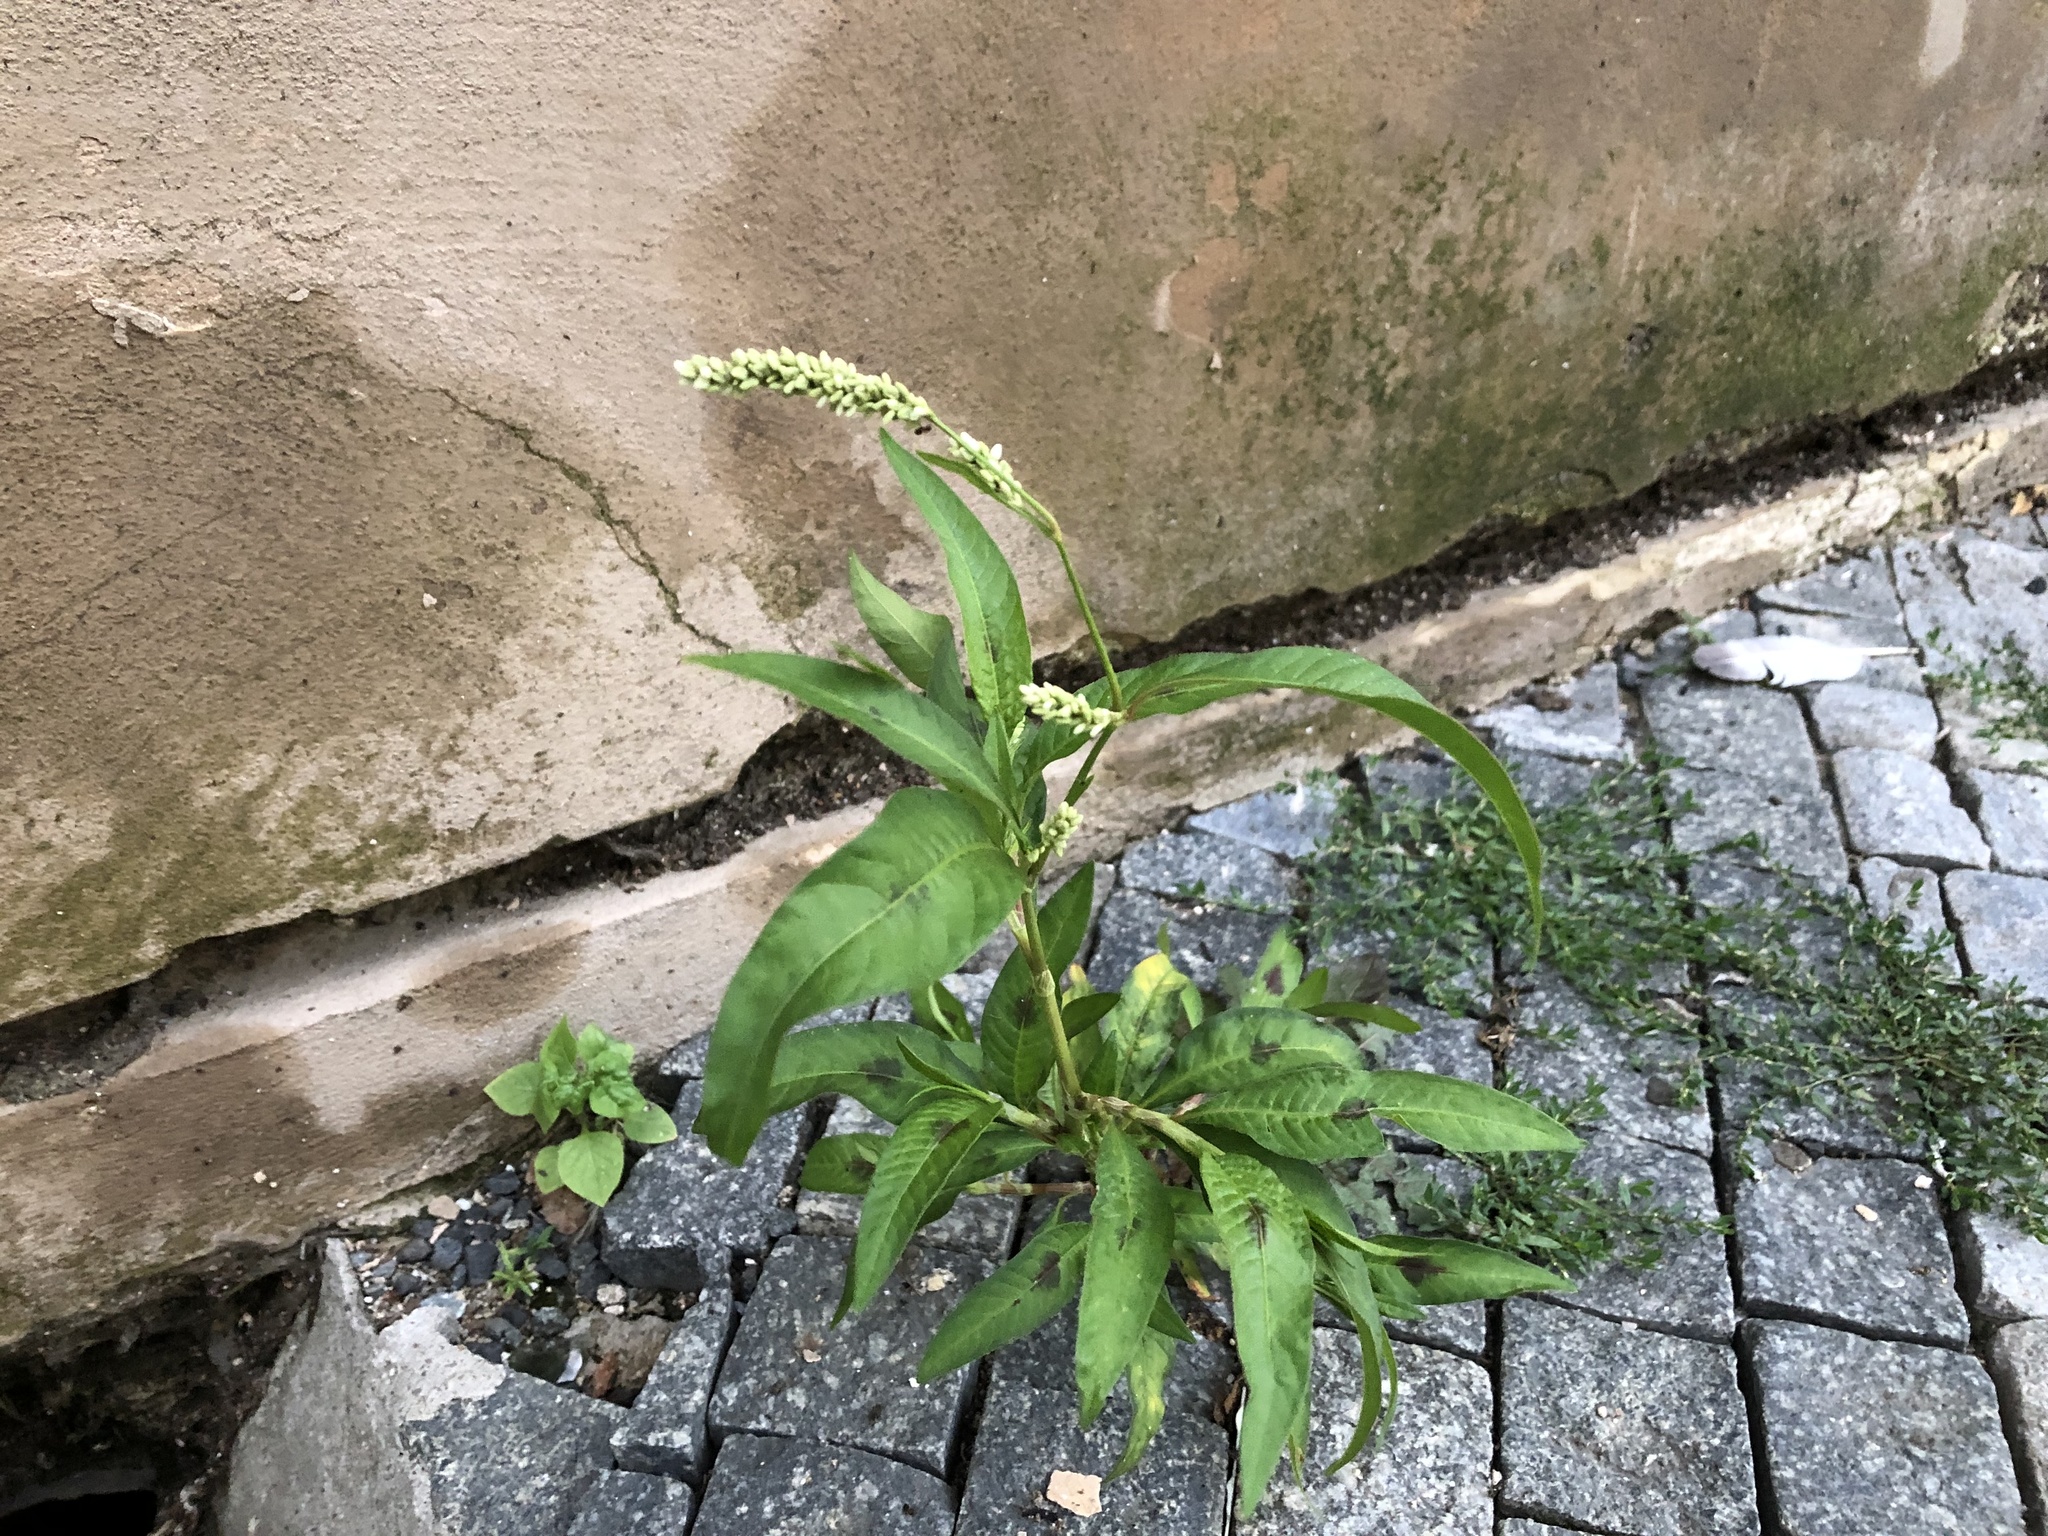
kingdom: Plantae
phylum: Tracheophyta
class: Magnoliopsida
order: Caryophyllales
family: Polygonaceae
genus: Persicaria
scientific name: Persicaria lapathifolia
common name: Curlytop knotweed
